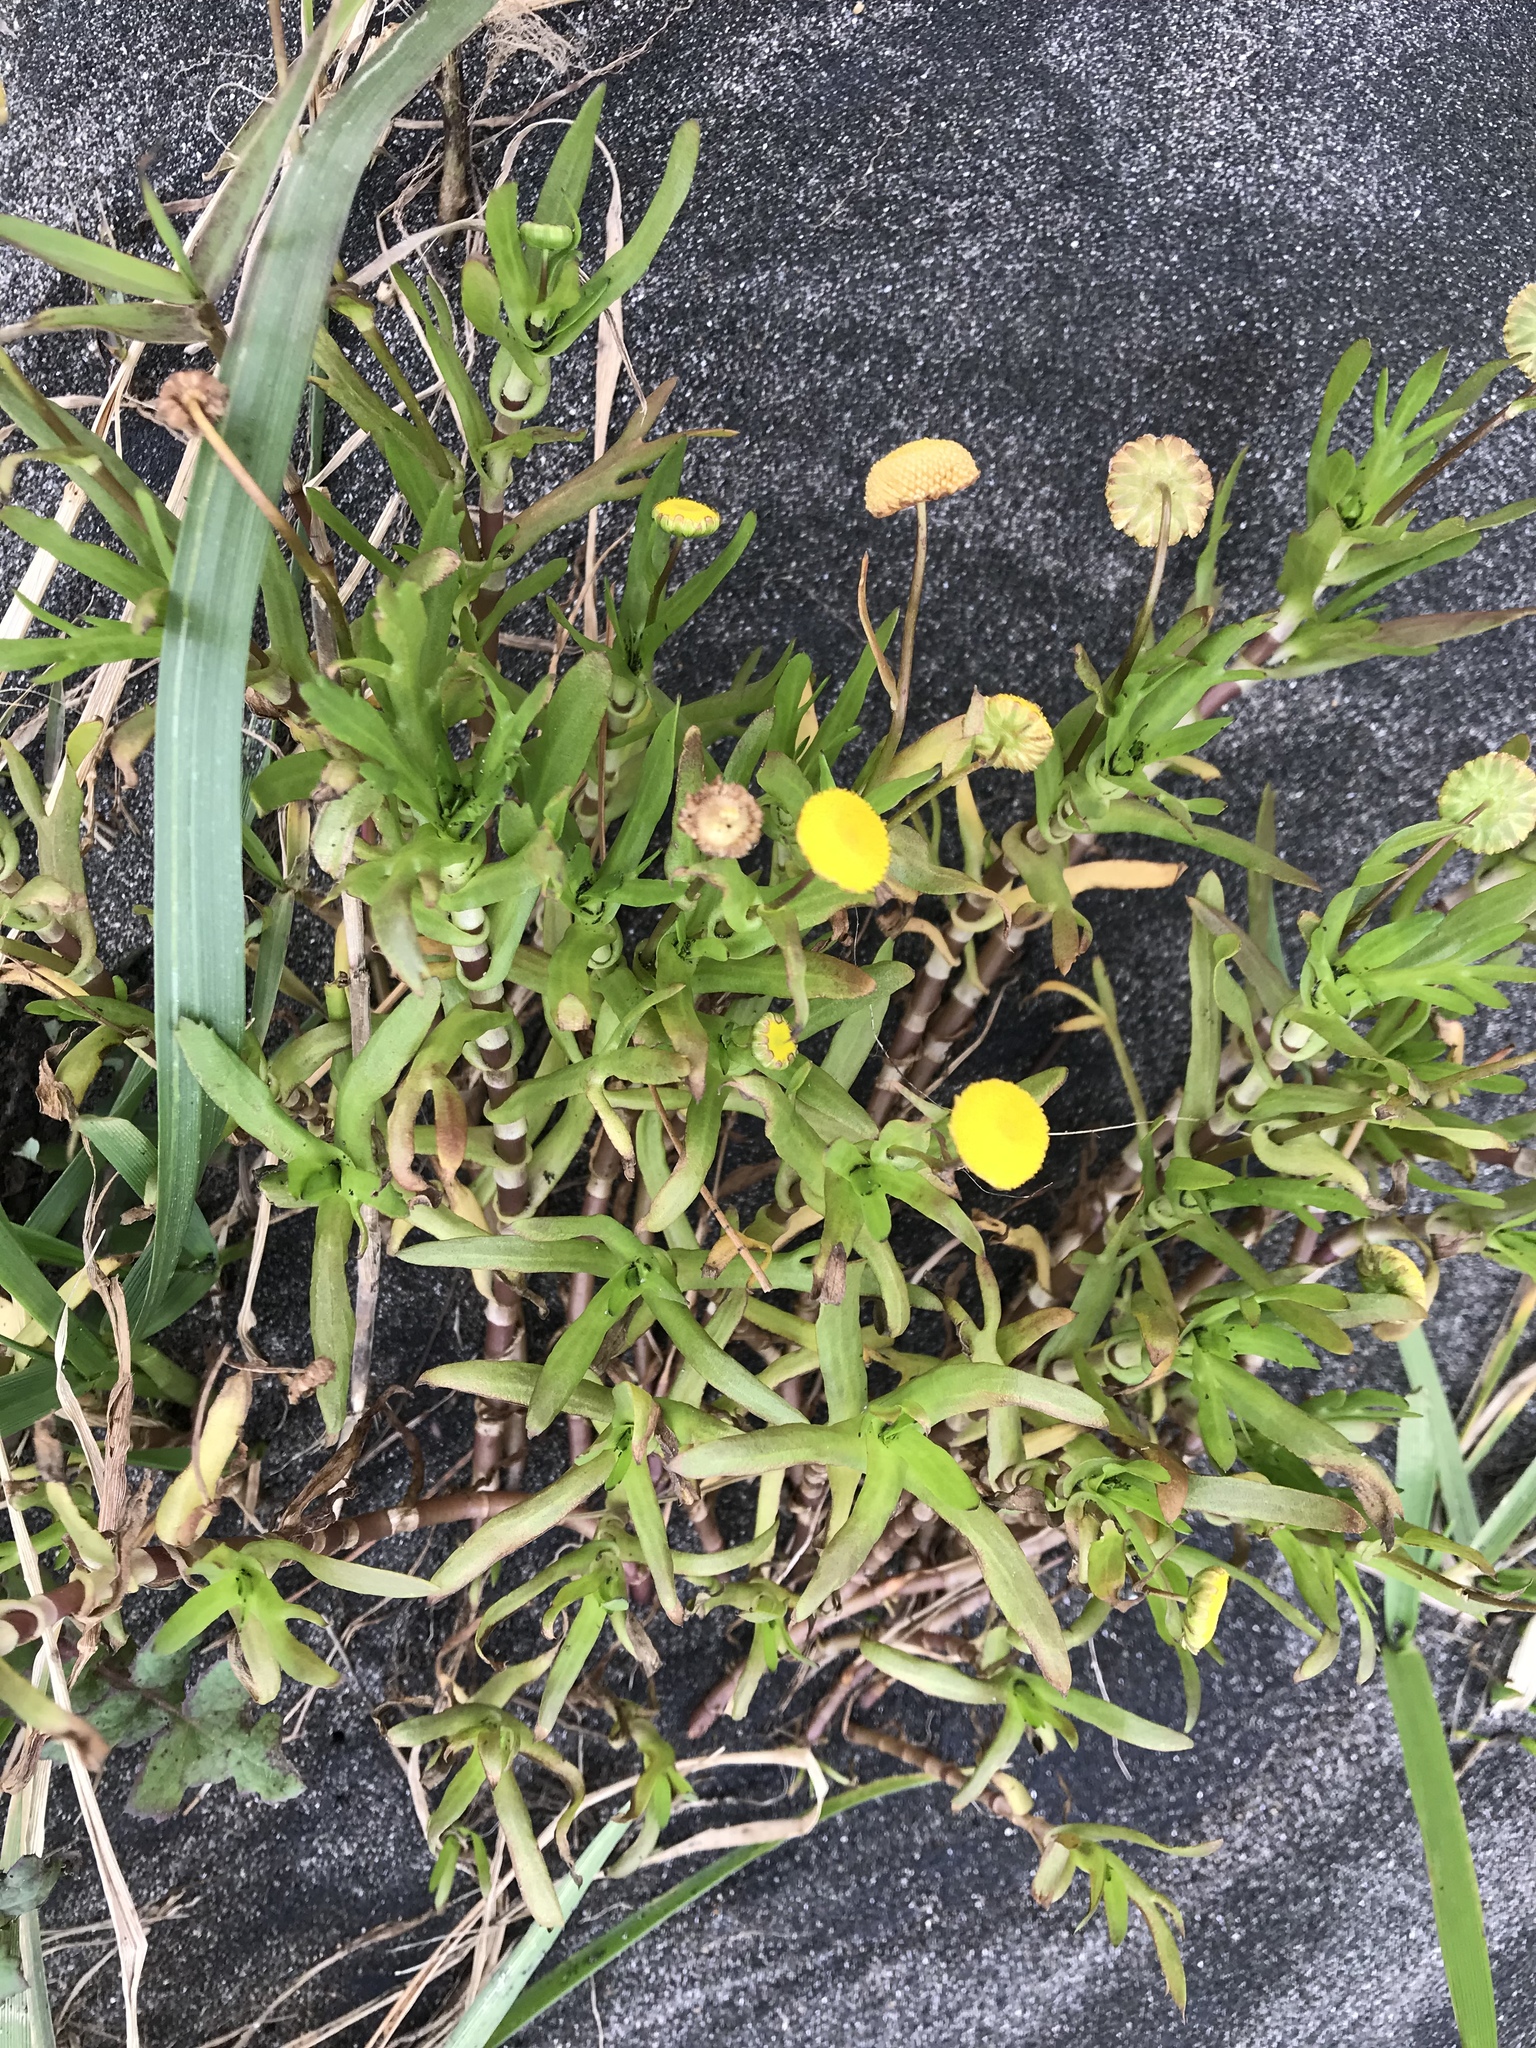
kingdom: Plantae
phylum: Tracheophyta
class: Magnoliopsida
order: Asterales
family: Asteraceae
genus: Cotula
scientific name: Cotula coronopifolia
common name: Buttonweed
